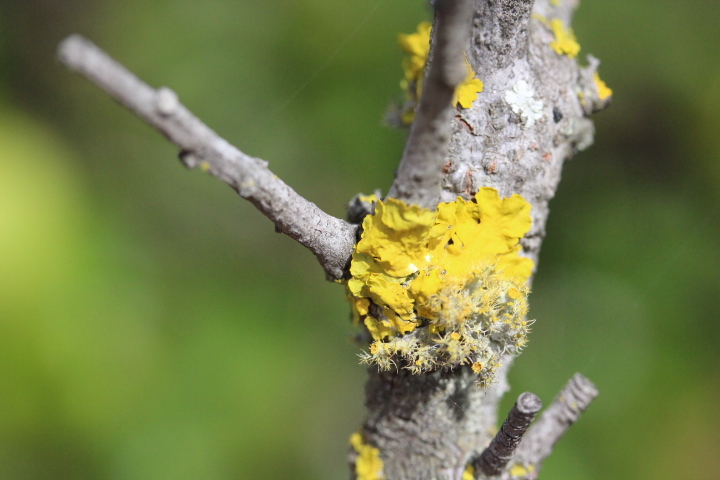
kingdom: Fungi
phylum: Ascomycota
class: Lecanoromycetes
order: Teloschistales
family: Teloschistaceae
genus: Xanthoria
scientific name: Xanthoria parietina
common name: Common orange lichen
